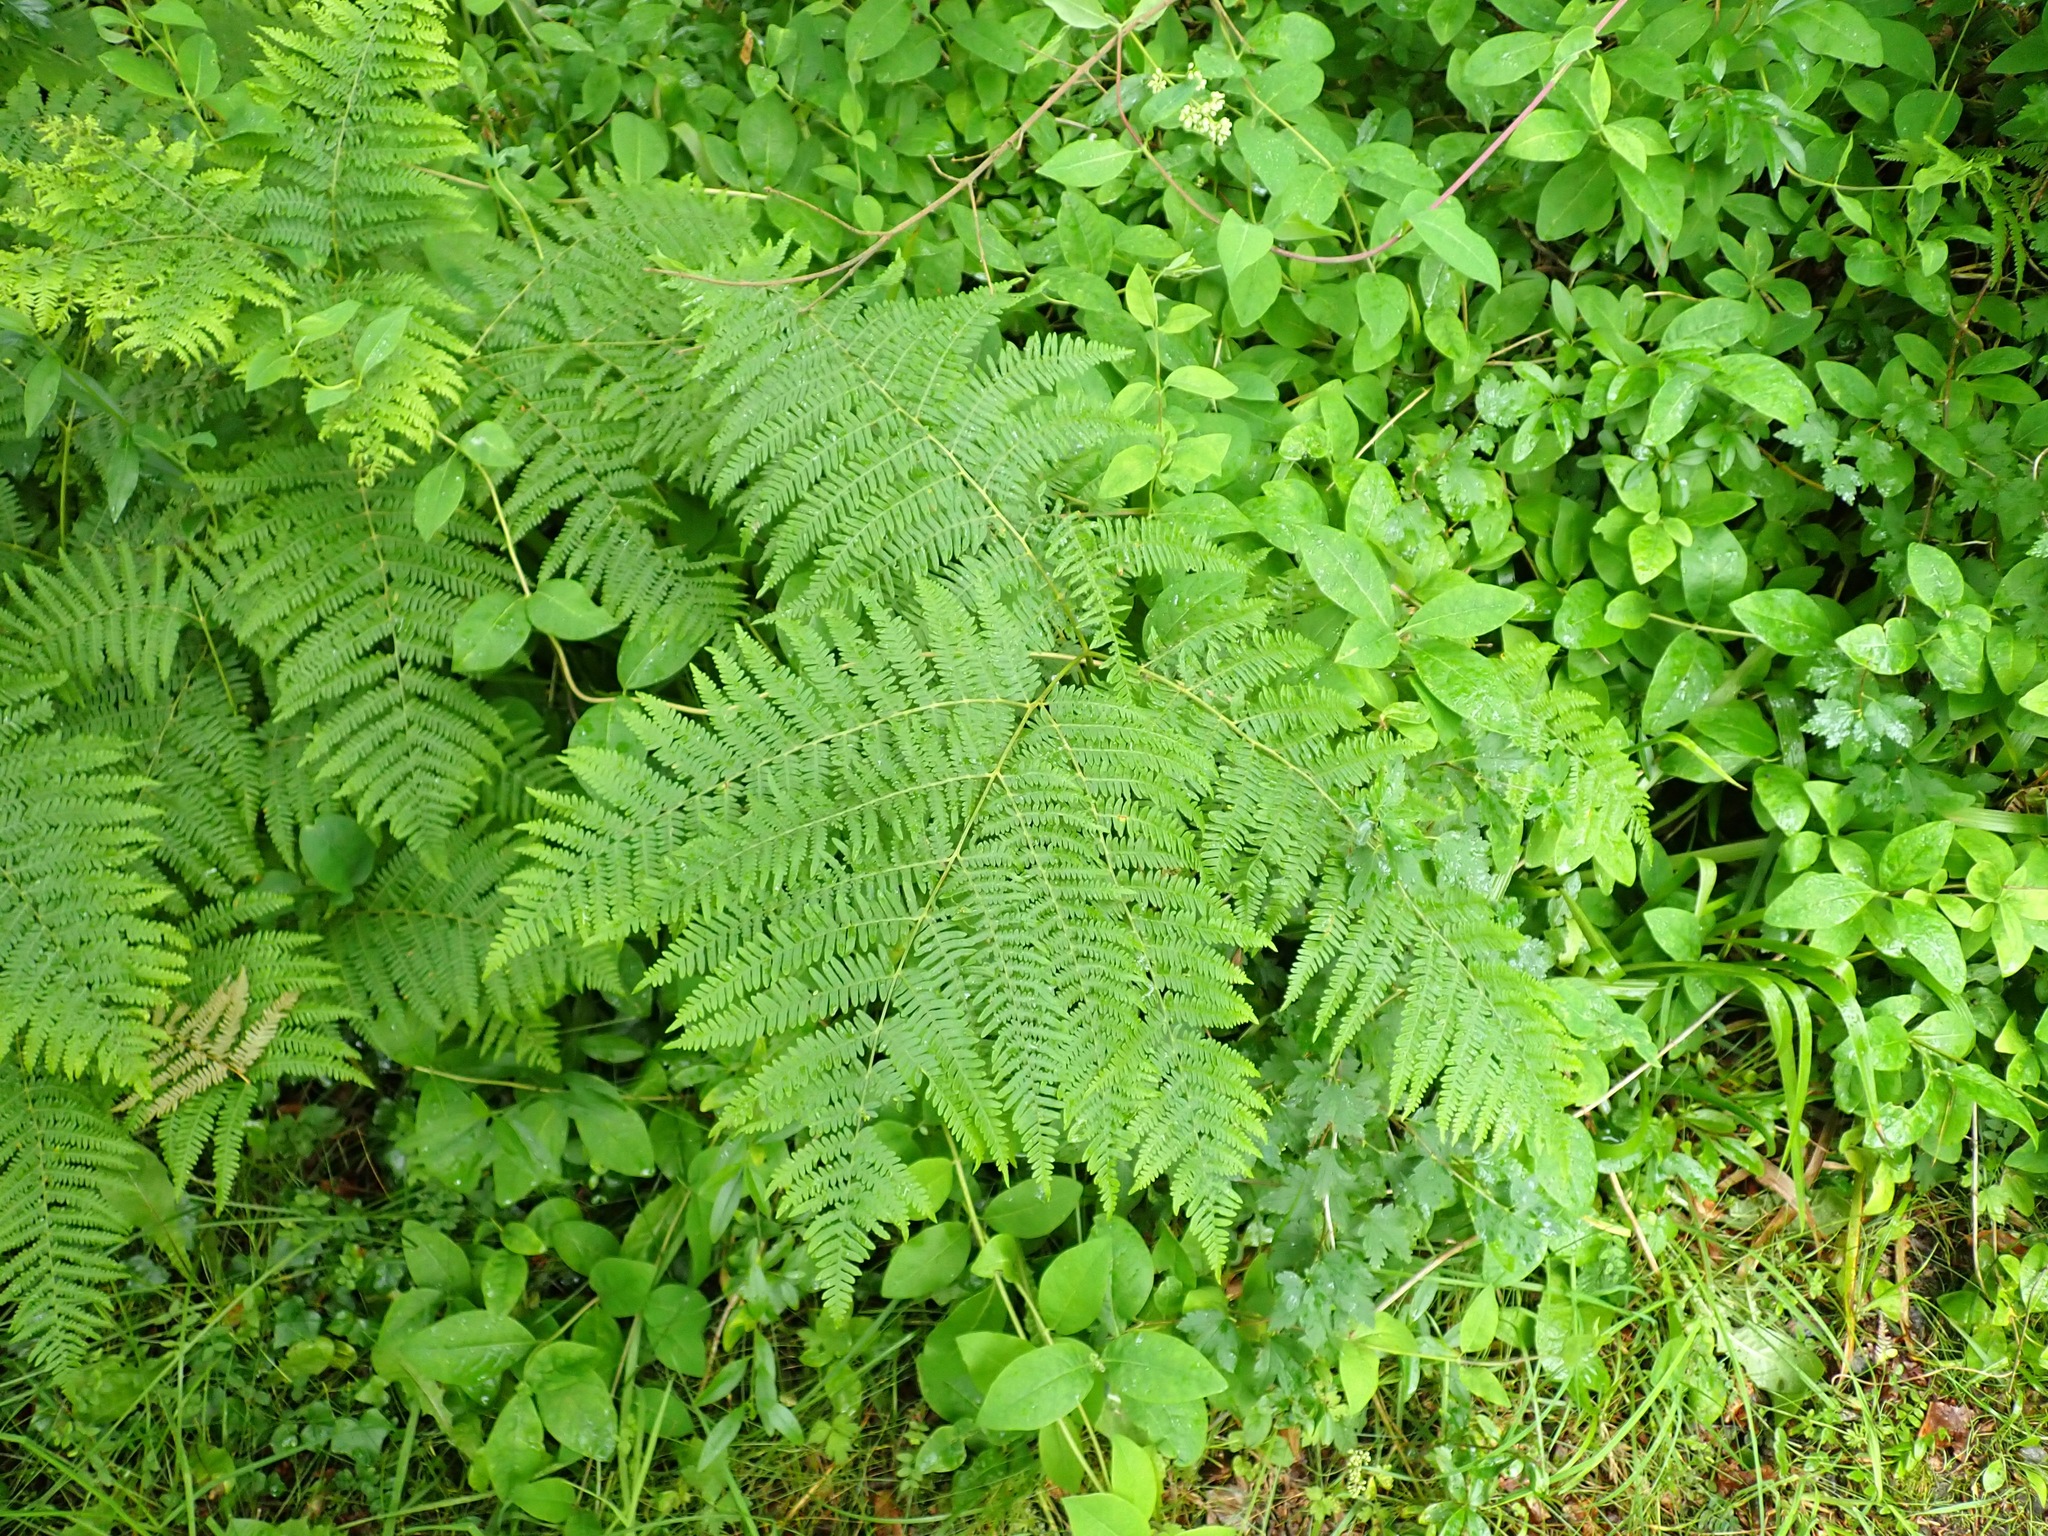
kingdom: Plantae
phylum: Tracheophyta
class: Polypodiopsida
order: Polypodiales
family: Dennstaedtiaceae
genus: Pteridium
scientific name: Pteridium aquilinum
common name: Bracken
